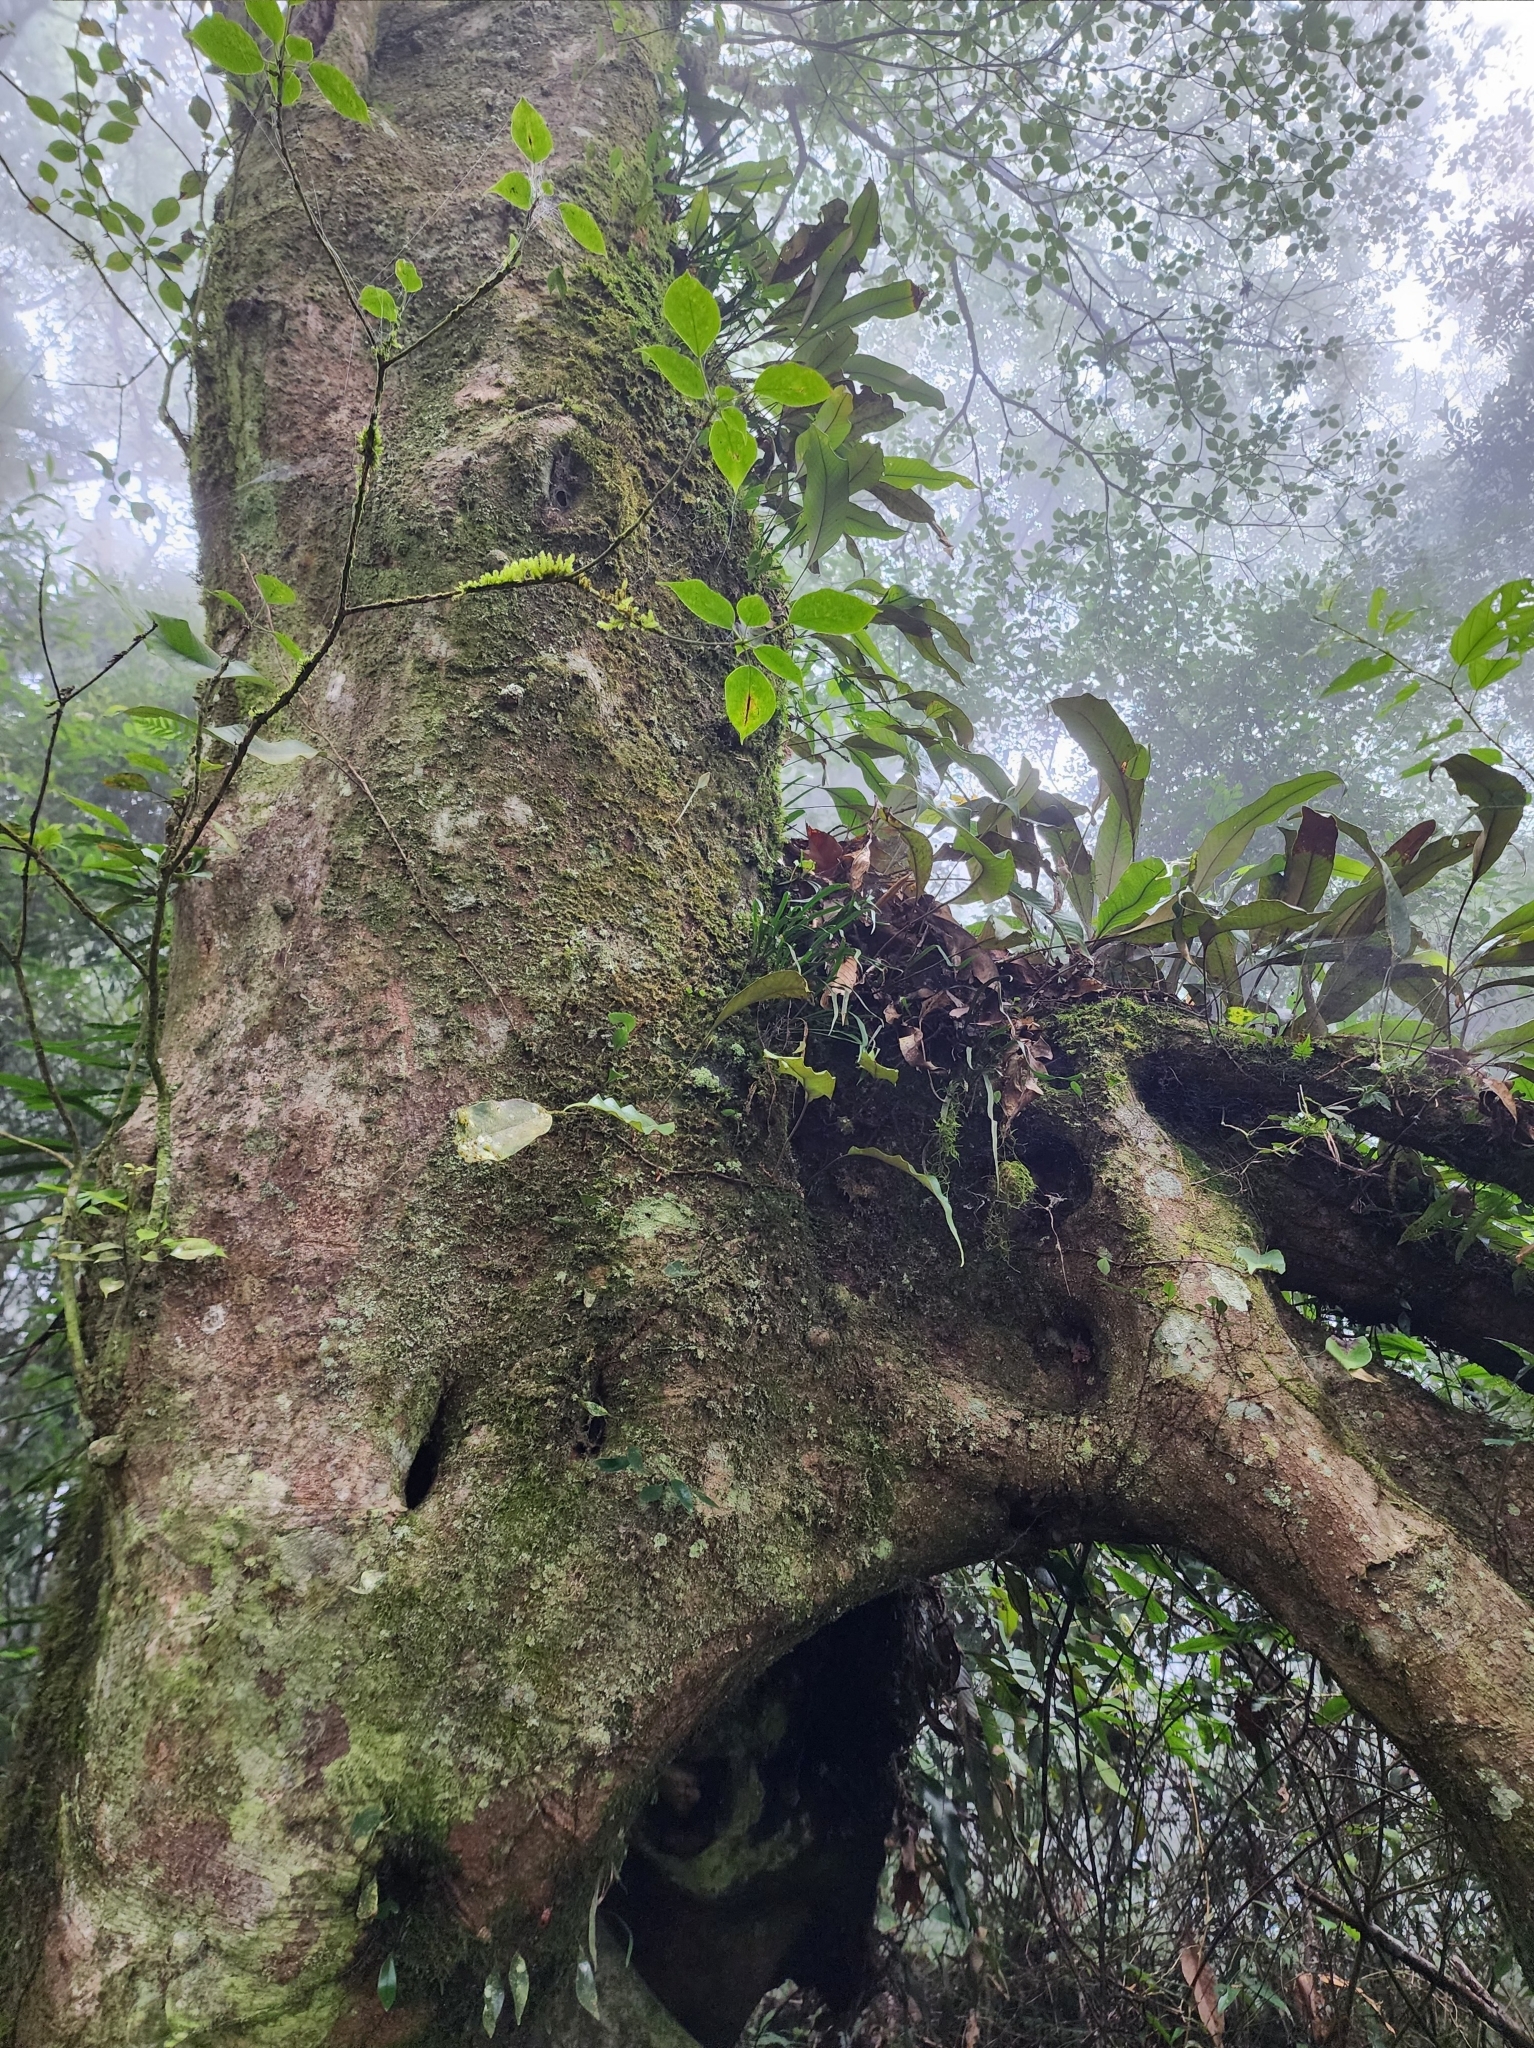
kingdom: Plantae
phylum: Tracheophyta
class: Magnoliopsida
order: Trochodendrales
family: Trochodendraceae
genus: Trochodendron
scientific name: Trochodendron aralioides
